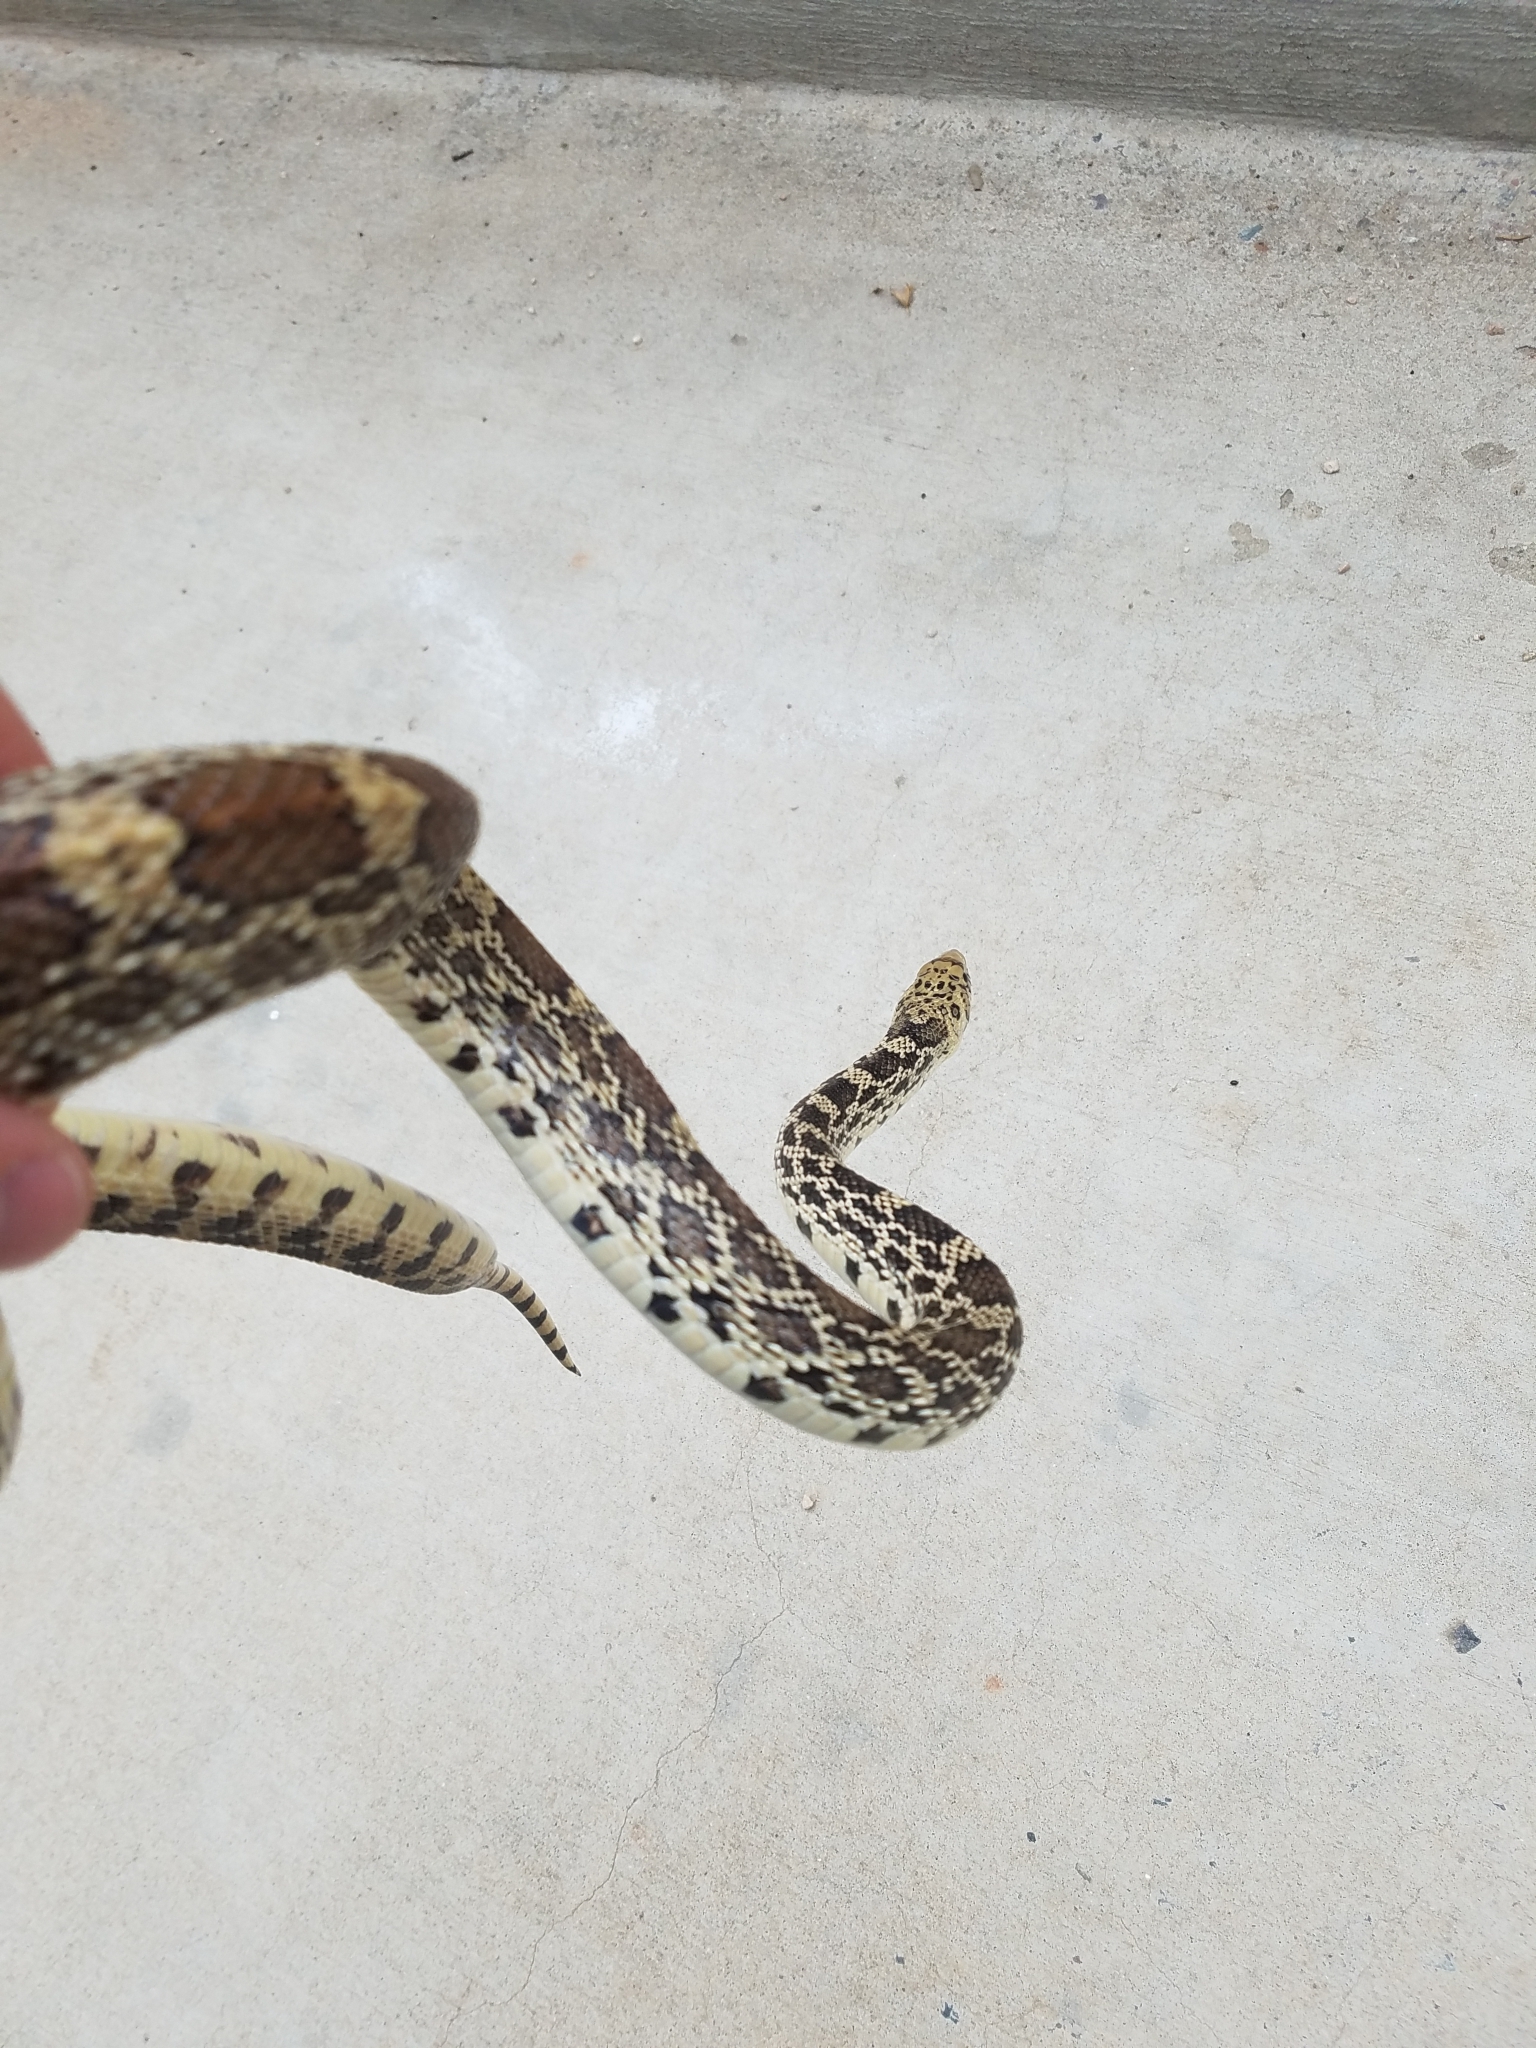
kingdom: Animalia
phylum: Chordata
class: Squamata
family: Colubridae
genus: Pituophis
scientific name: Pituophis catenifer
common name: Gopher snake
